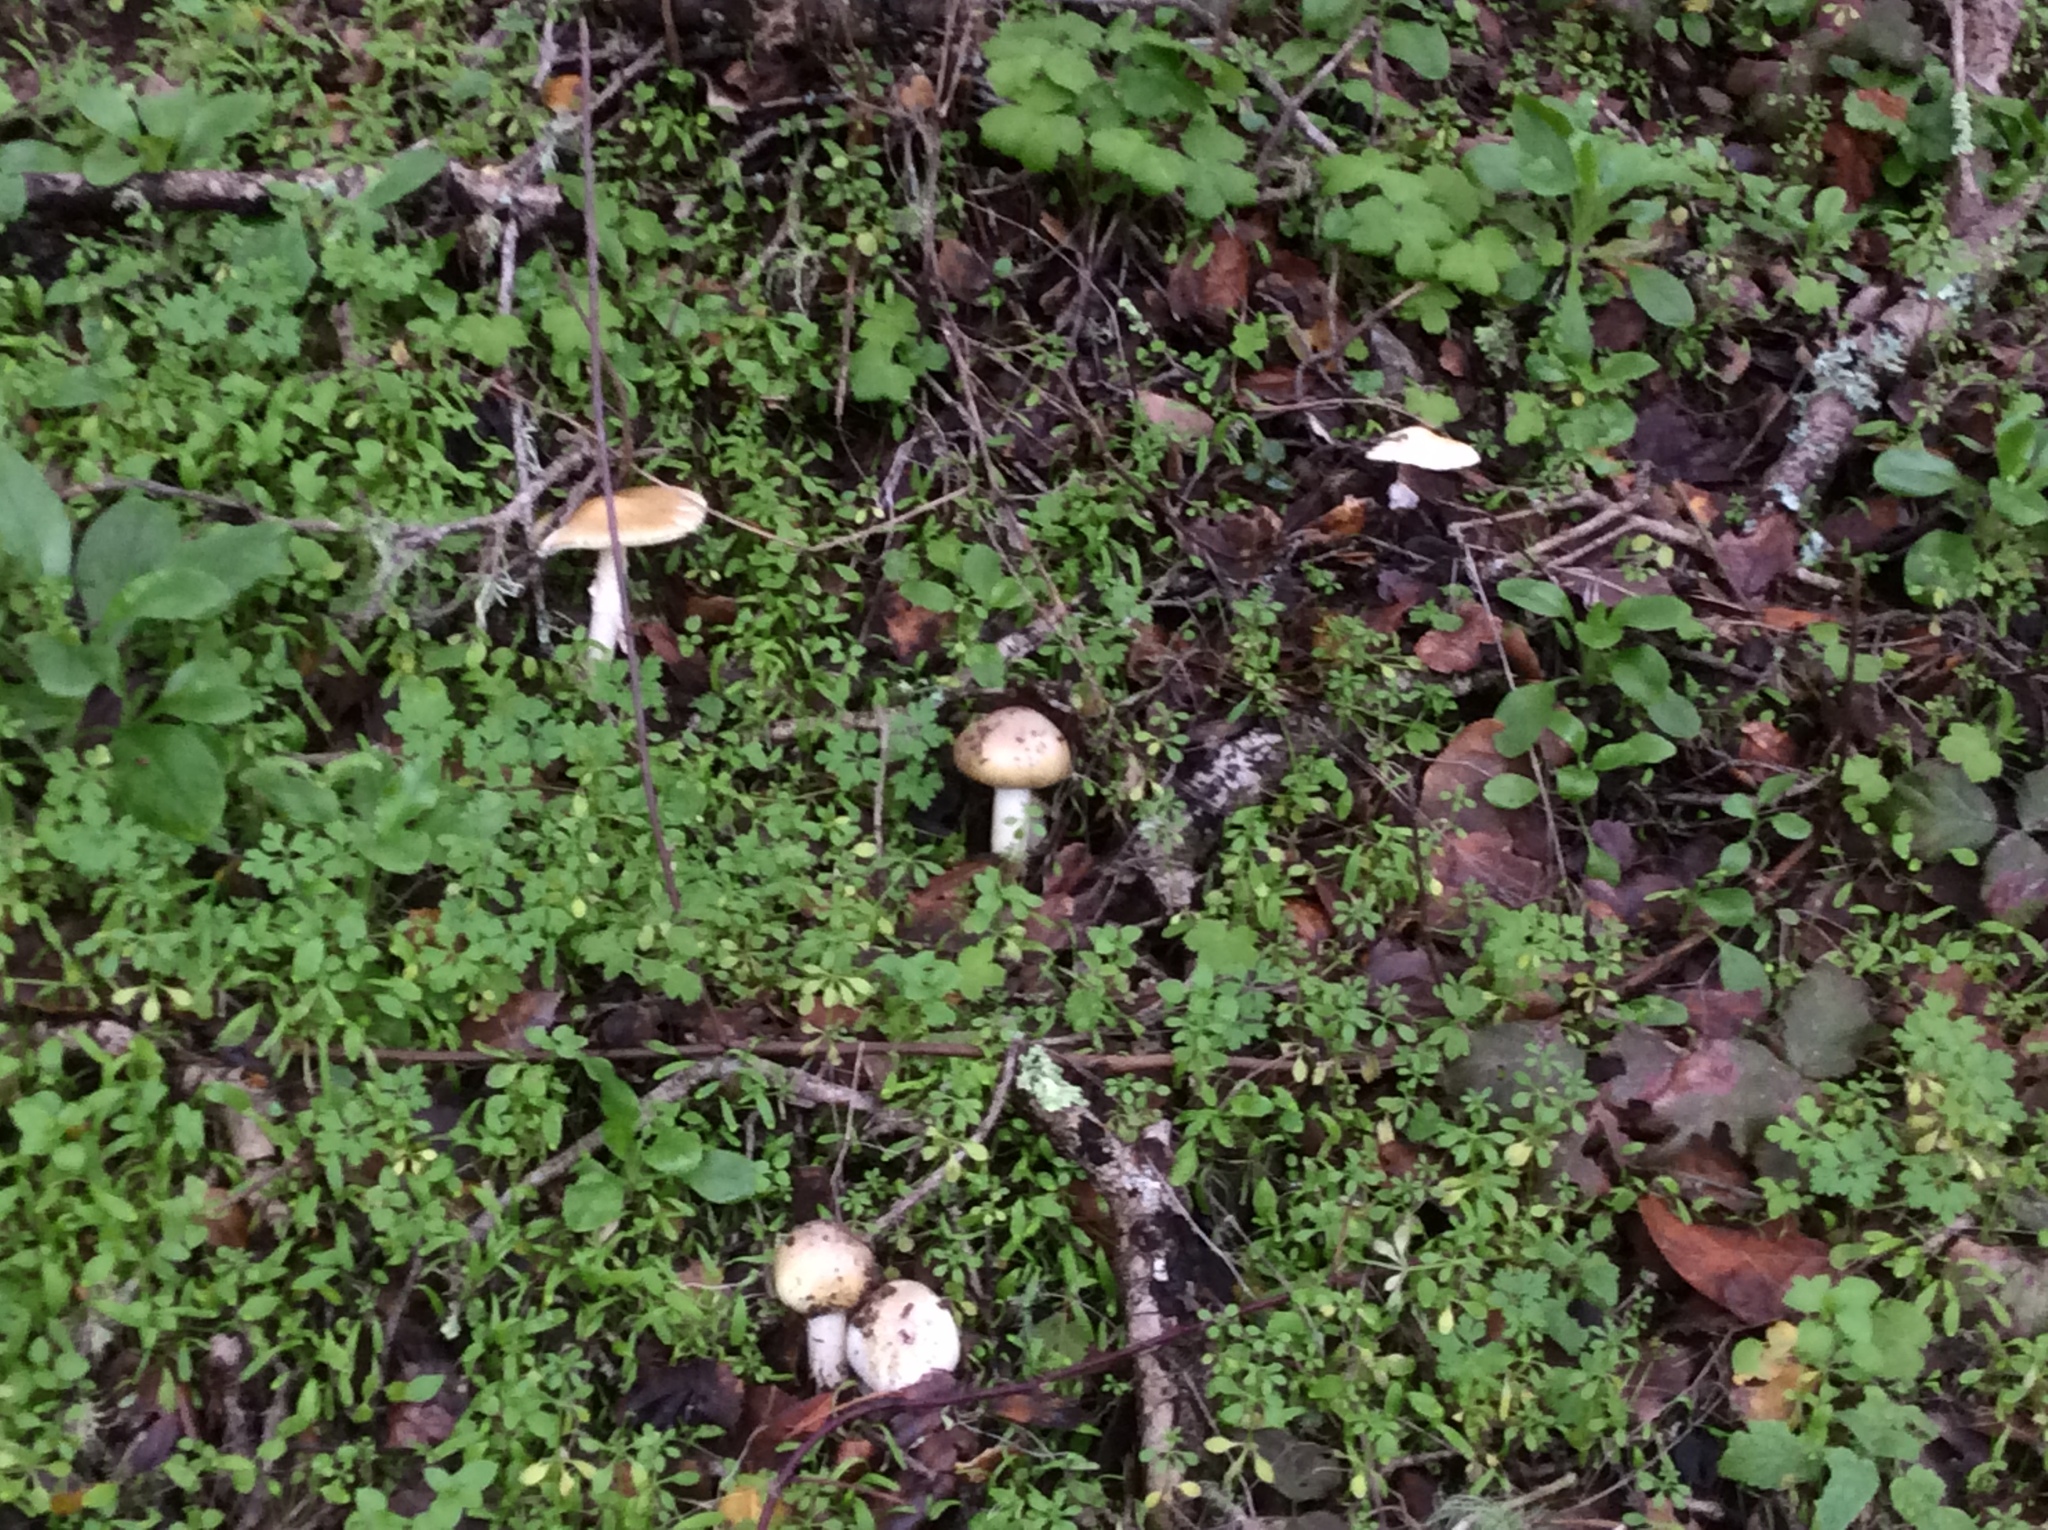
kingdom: Fungi
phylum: Basidiomycota
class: Agaricomycetes
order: Agaricales
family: Amanitaceae
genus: Amanita
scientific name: Amanita phalloides
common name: Death cap
